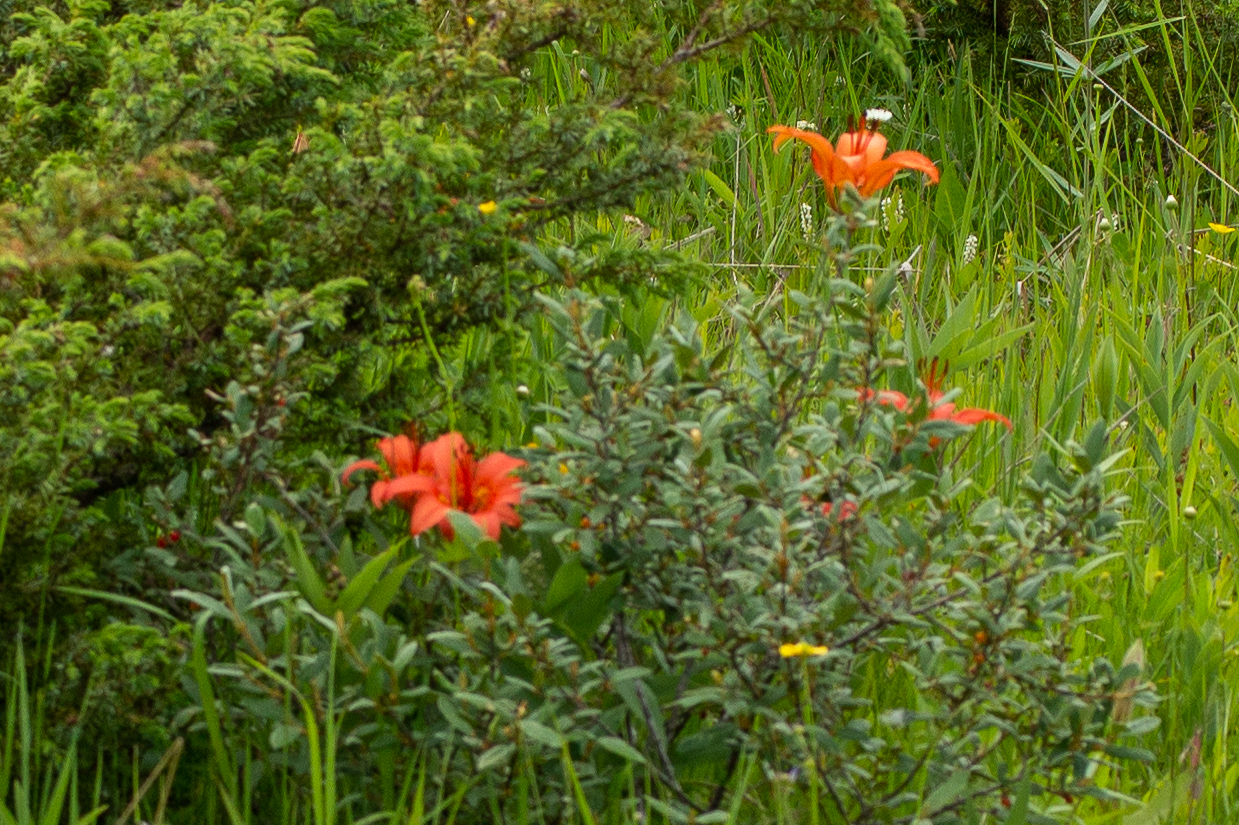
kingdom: Plantae
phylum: Tracheophyta
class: Liliopsida
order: Liliales
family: Liliaceae
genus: Lilium
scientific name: Lilium philadelphicum
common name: Red lily
